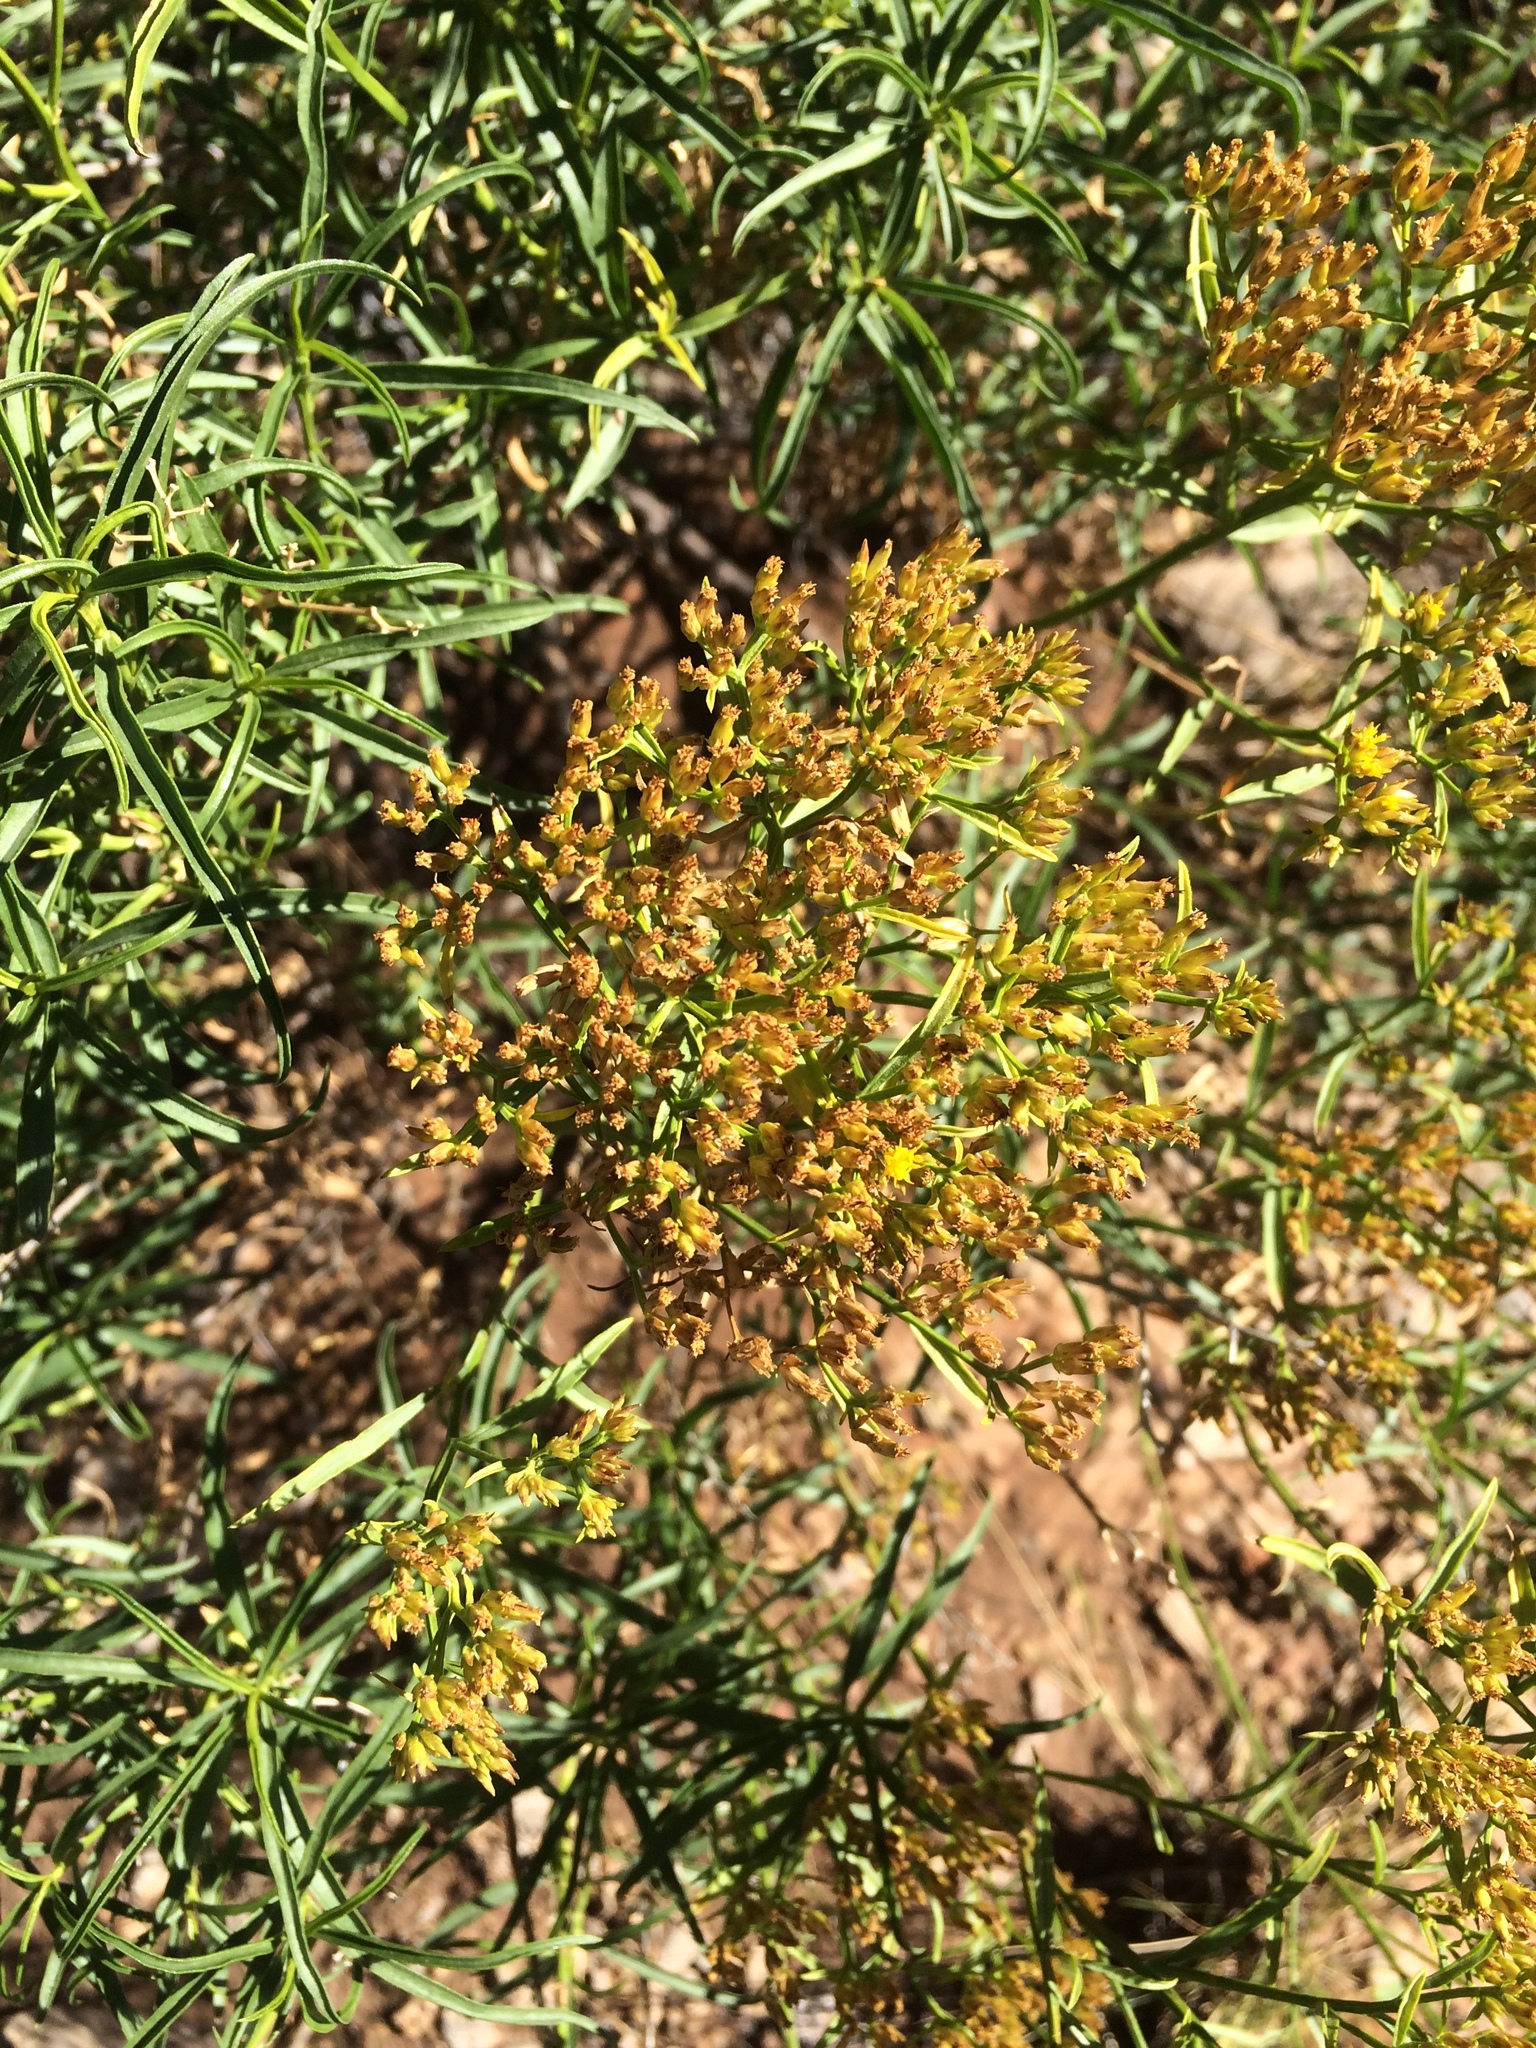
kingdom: Plantae
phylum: Tracheophyta
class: Magnoliopsida
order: Asterales
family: Asteraceae
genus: Gymnosperma
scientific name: Gymnosperma glutinosum
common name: Gumhead
